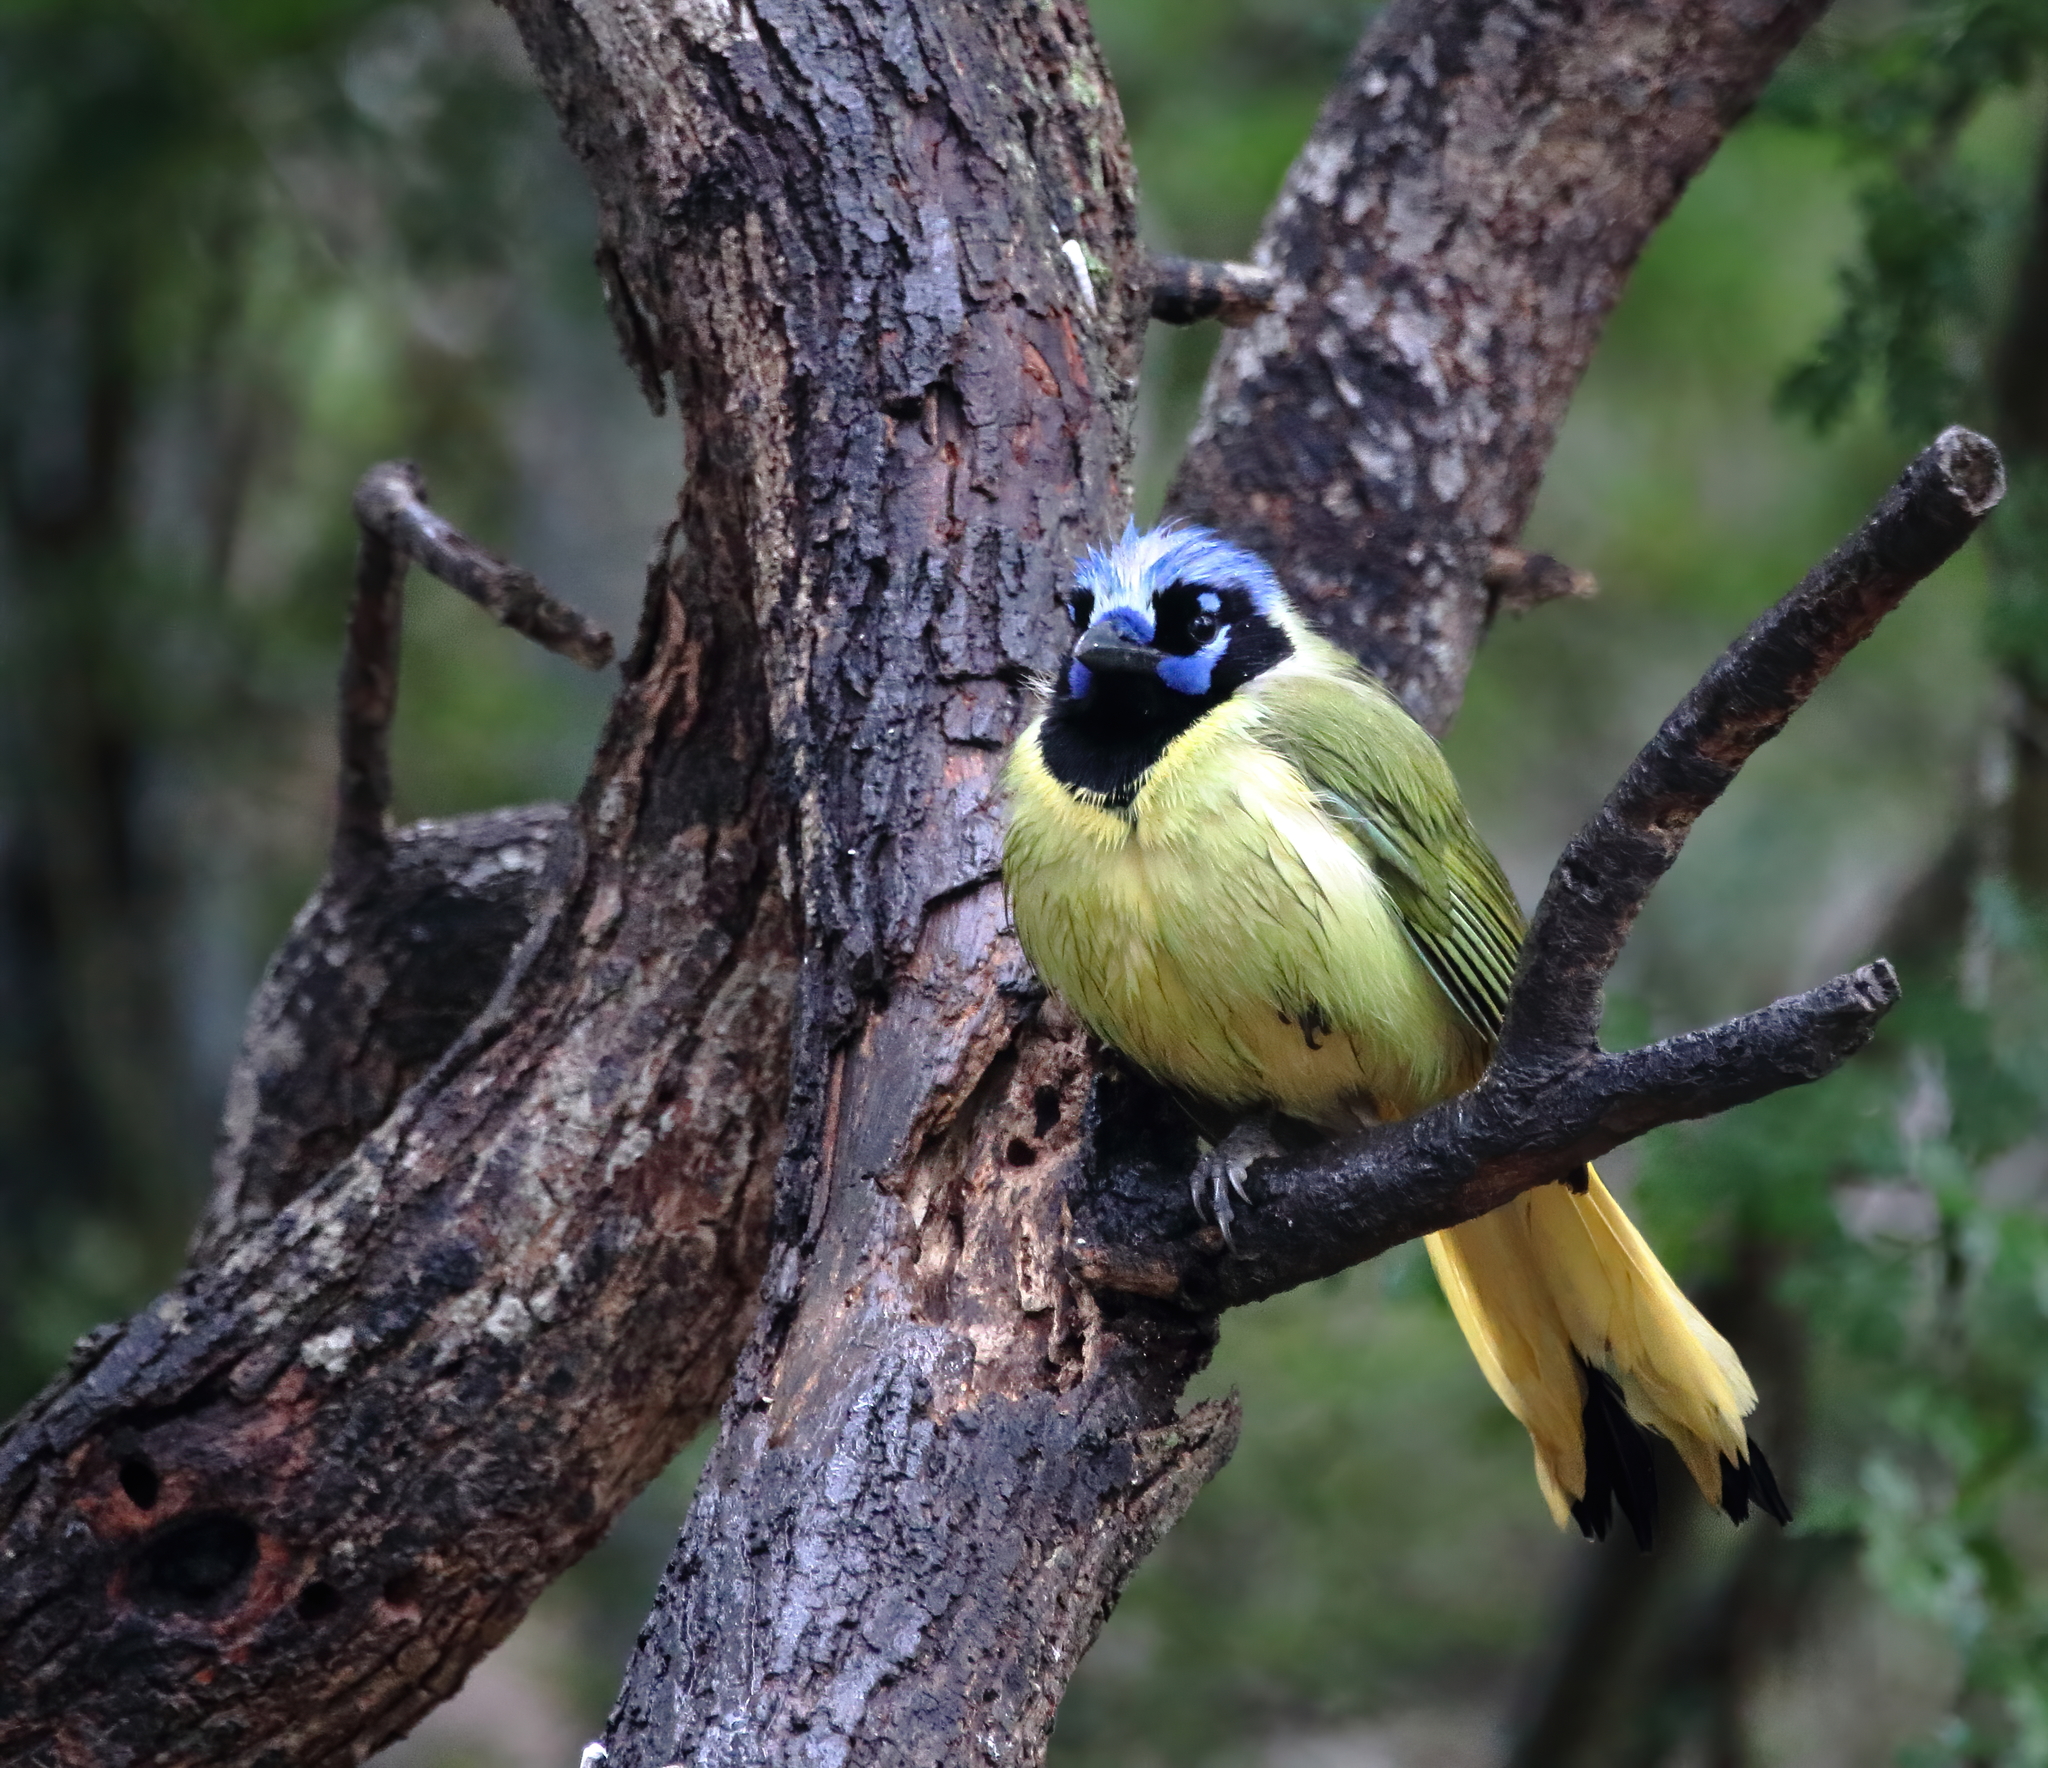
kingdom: Animalia
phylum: Chordata
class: Aves
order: Passeriformes
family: Corvidae
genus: Cyanocorax
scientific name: Cyanocorax yncas
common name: Green jay
